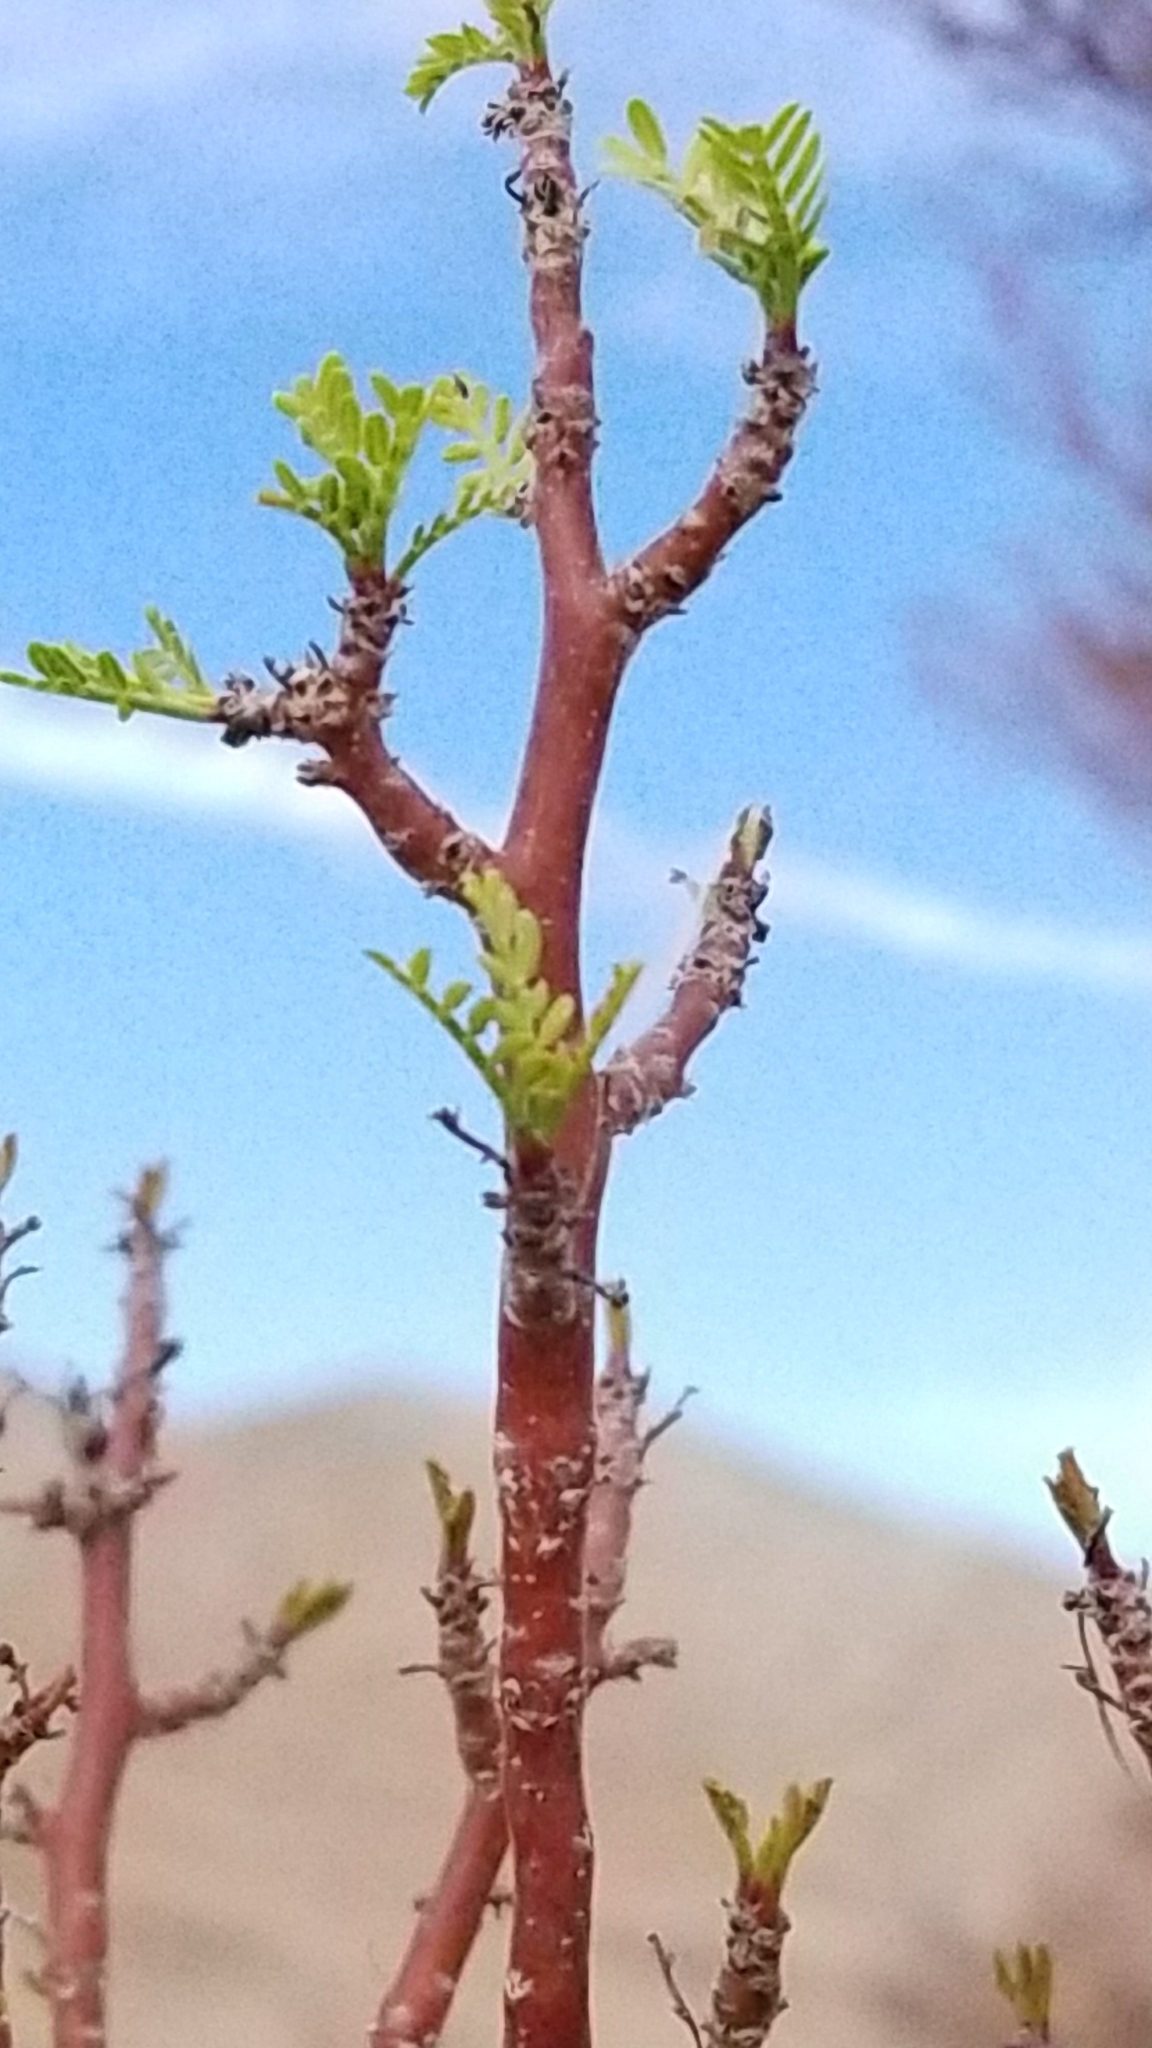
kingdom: Plantae
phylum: Tracheophyta
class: Magnoliopsida
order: Sapindales
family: Burseraceae
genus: Bursera
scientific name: Bursera microphylla
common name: Elephant tree
